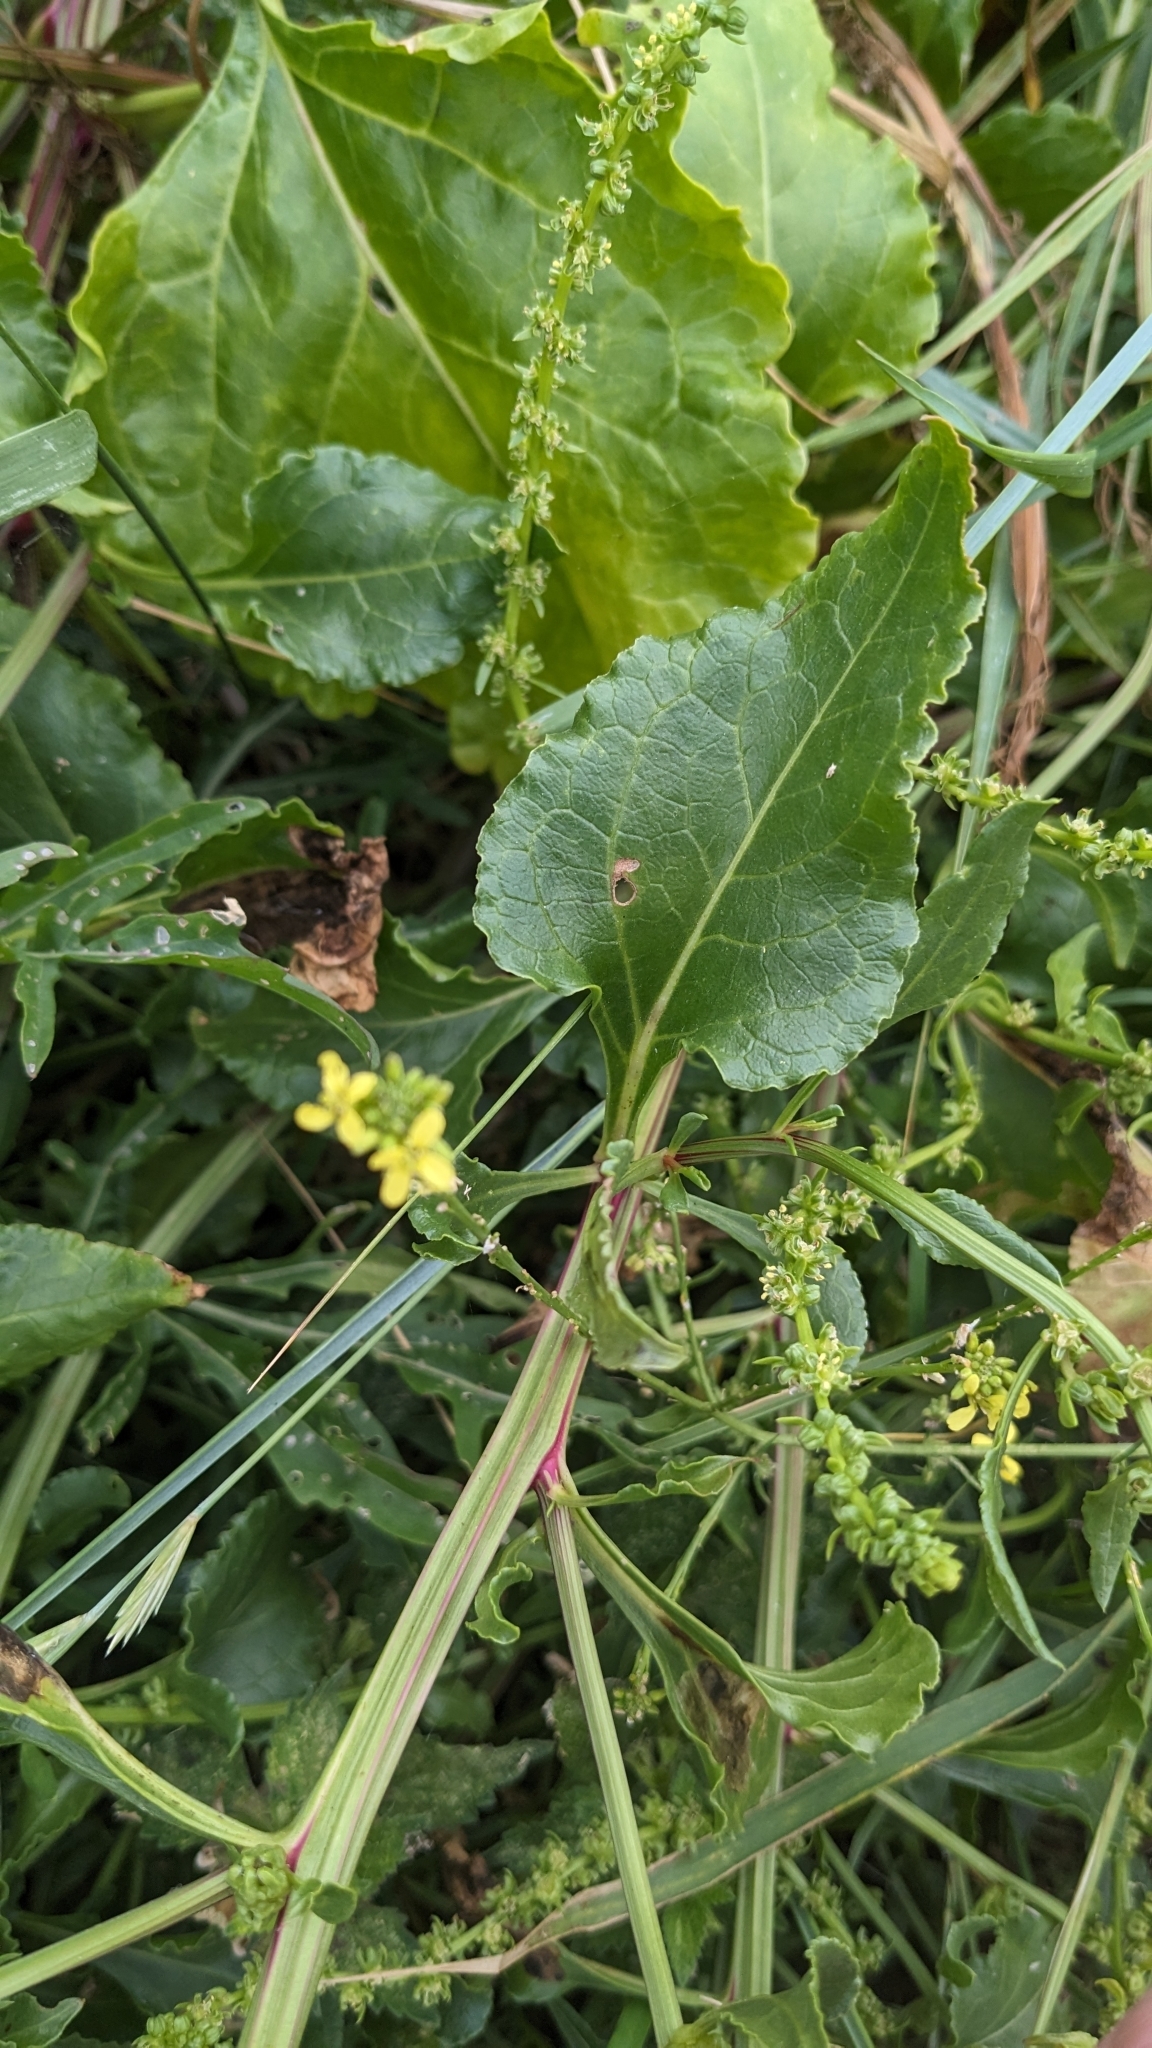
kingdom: Plantae
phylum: Tracheophyta
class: Magnoliopsida
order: Caryophyllales
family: Amaranthaceae
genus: Beta
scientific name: Beta vulgaris
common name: Beet
